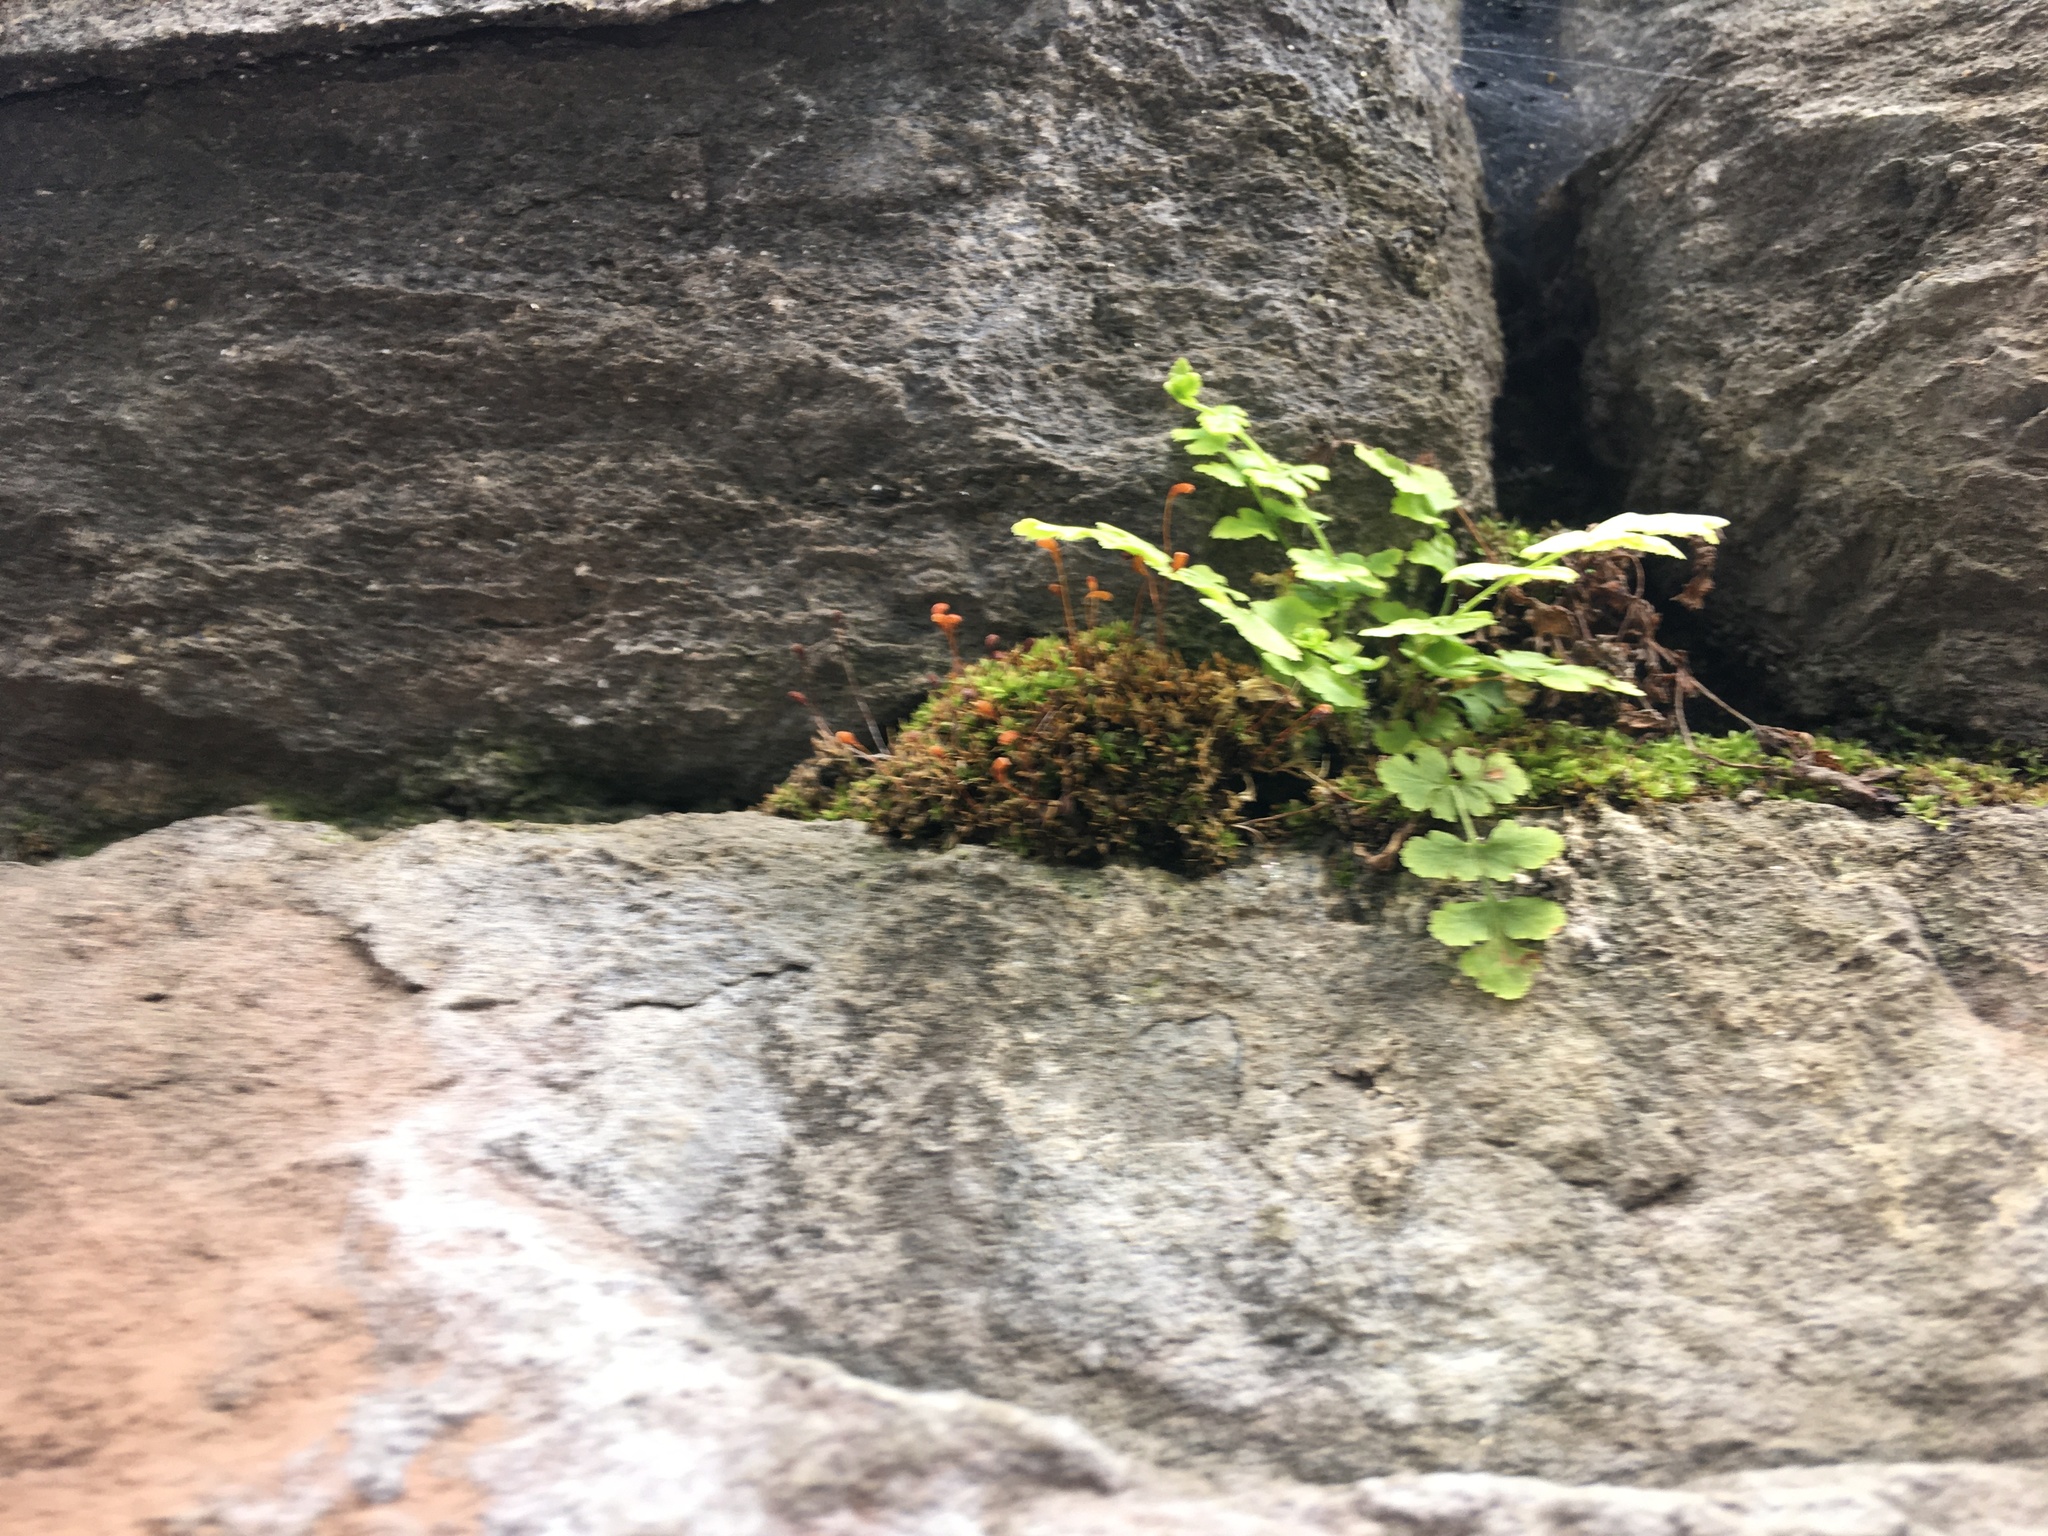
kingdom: Plantae
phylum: Tracheophyta
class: Polypodiopsida
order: Polypodiales
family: Woodsiaceae
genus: Physematium
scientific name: Physematium obtusum
